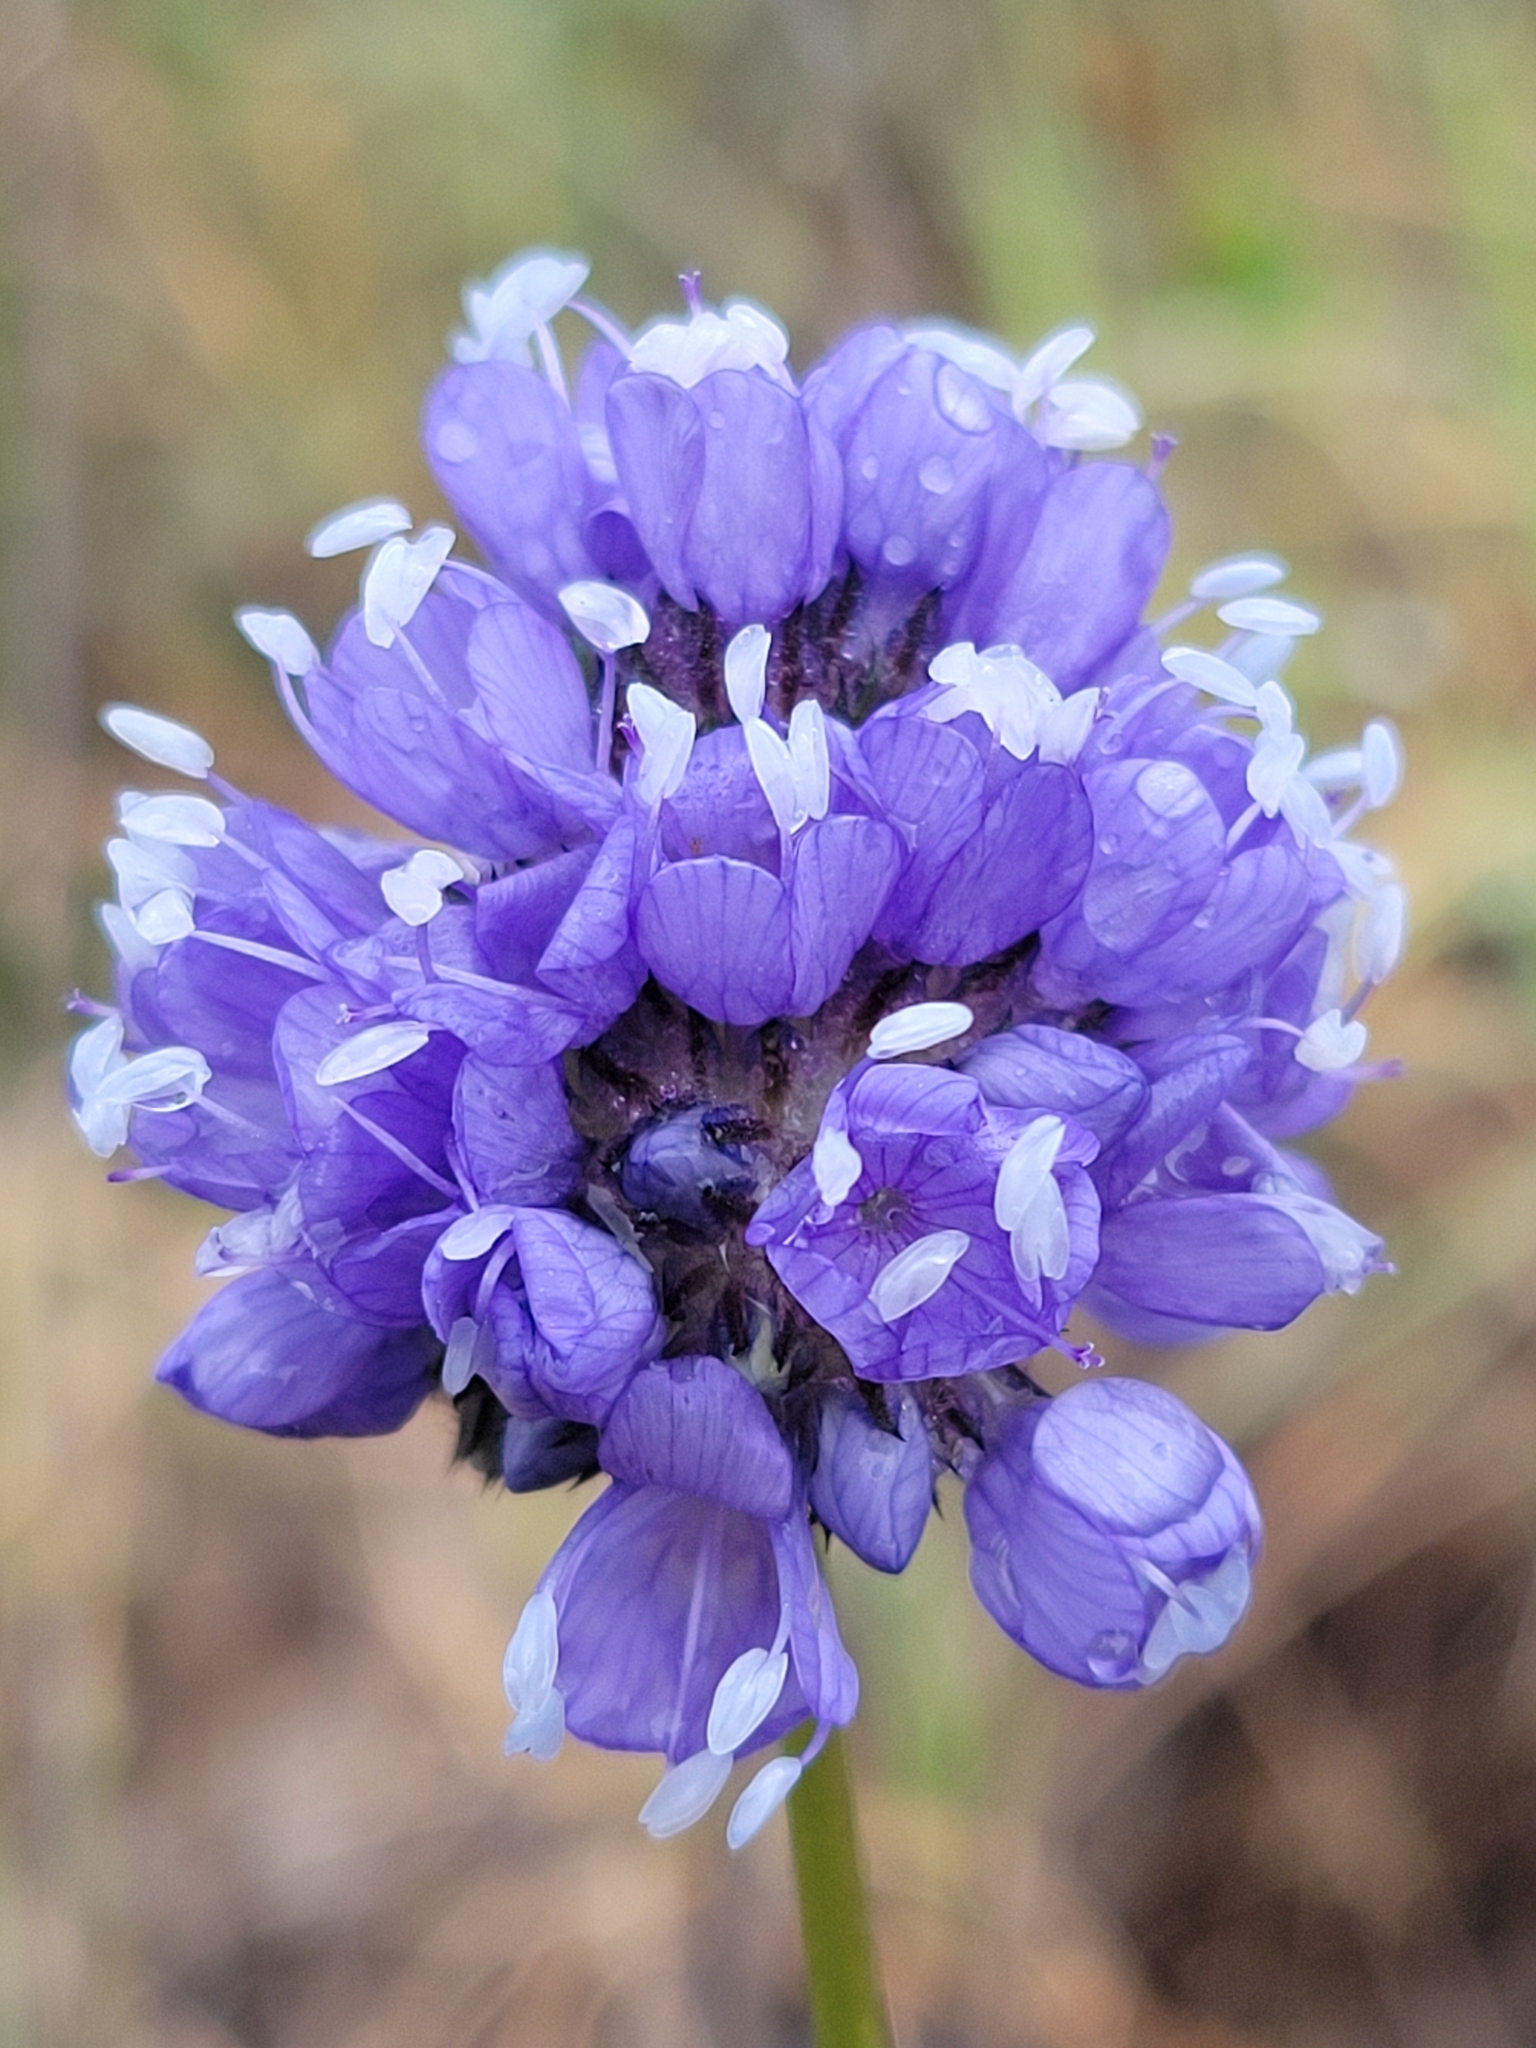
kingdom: Plantae
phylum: Tracheophyta
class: Magnoliopsida
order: Ericales
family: Polemoniaceae
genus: Gilia
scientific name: Gilia capitata
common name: Bluehead gilia
